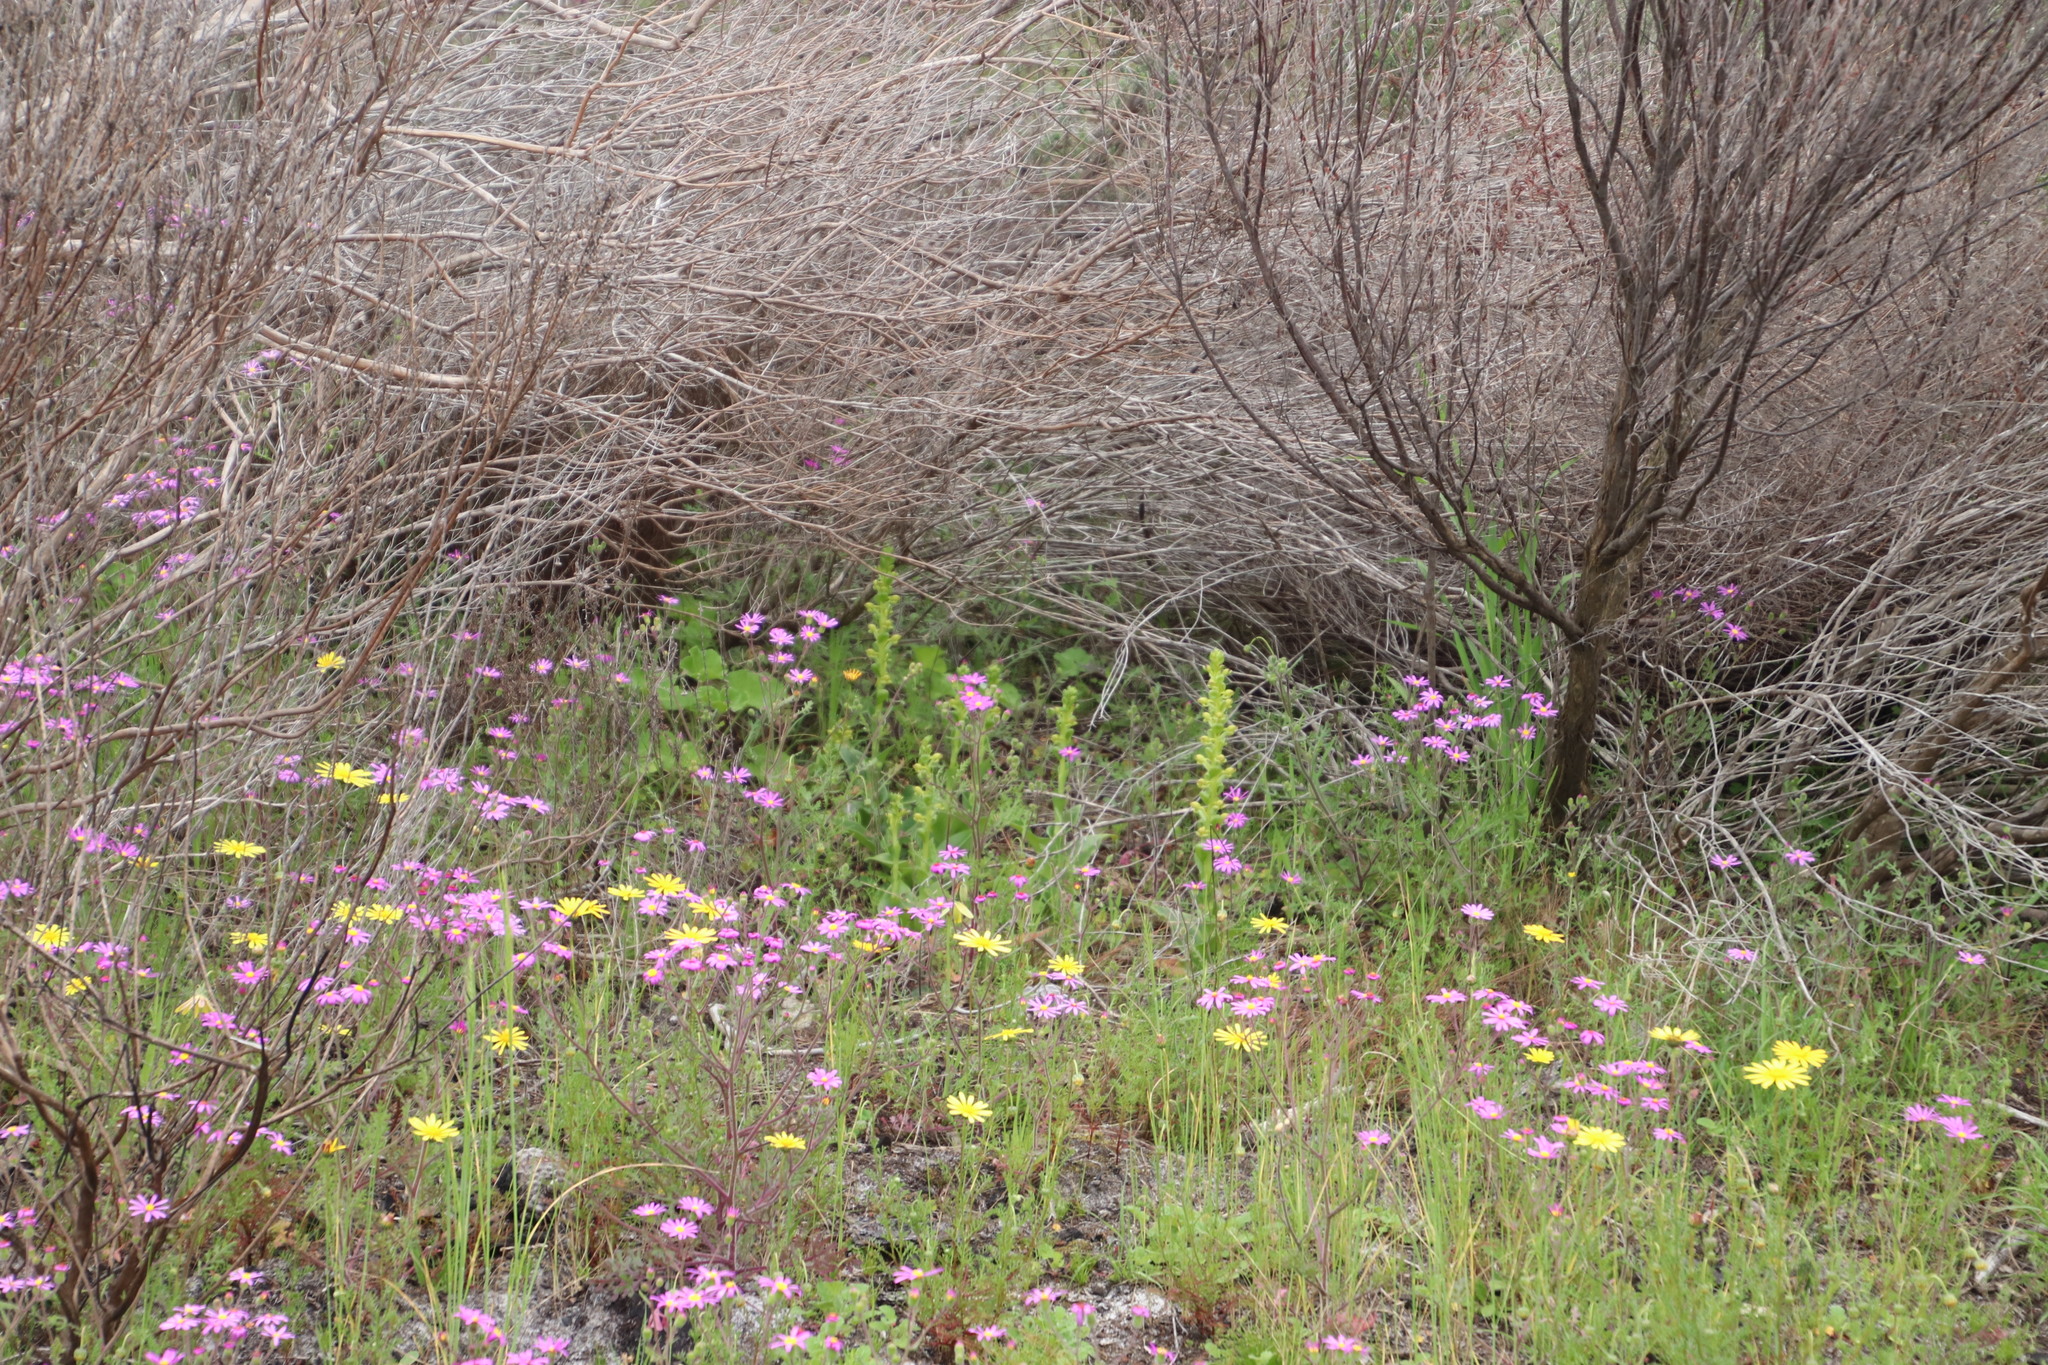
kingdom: Plantae
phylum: Tracheophyta
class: Liliopsida
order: Asparagales
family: Orchidaceae
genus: Satyrium
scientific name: Satyrium odorum
